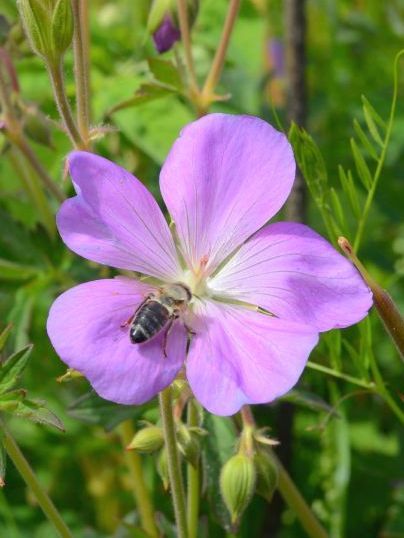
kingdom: Animalia
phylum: Arthropoda
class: Insecta
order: Hymenoptera
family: Apidae
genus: Apis
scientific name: Apis mellifera
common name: Honey bee
